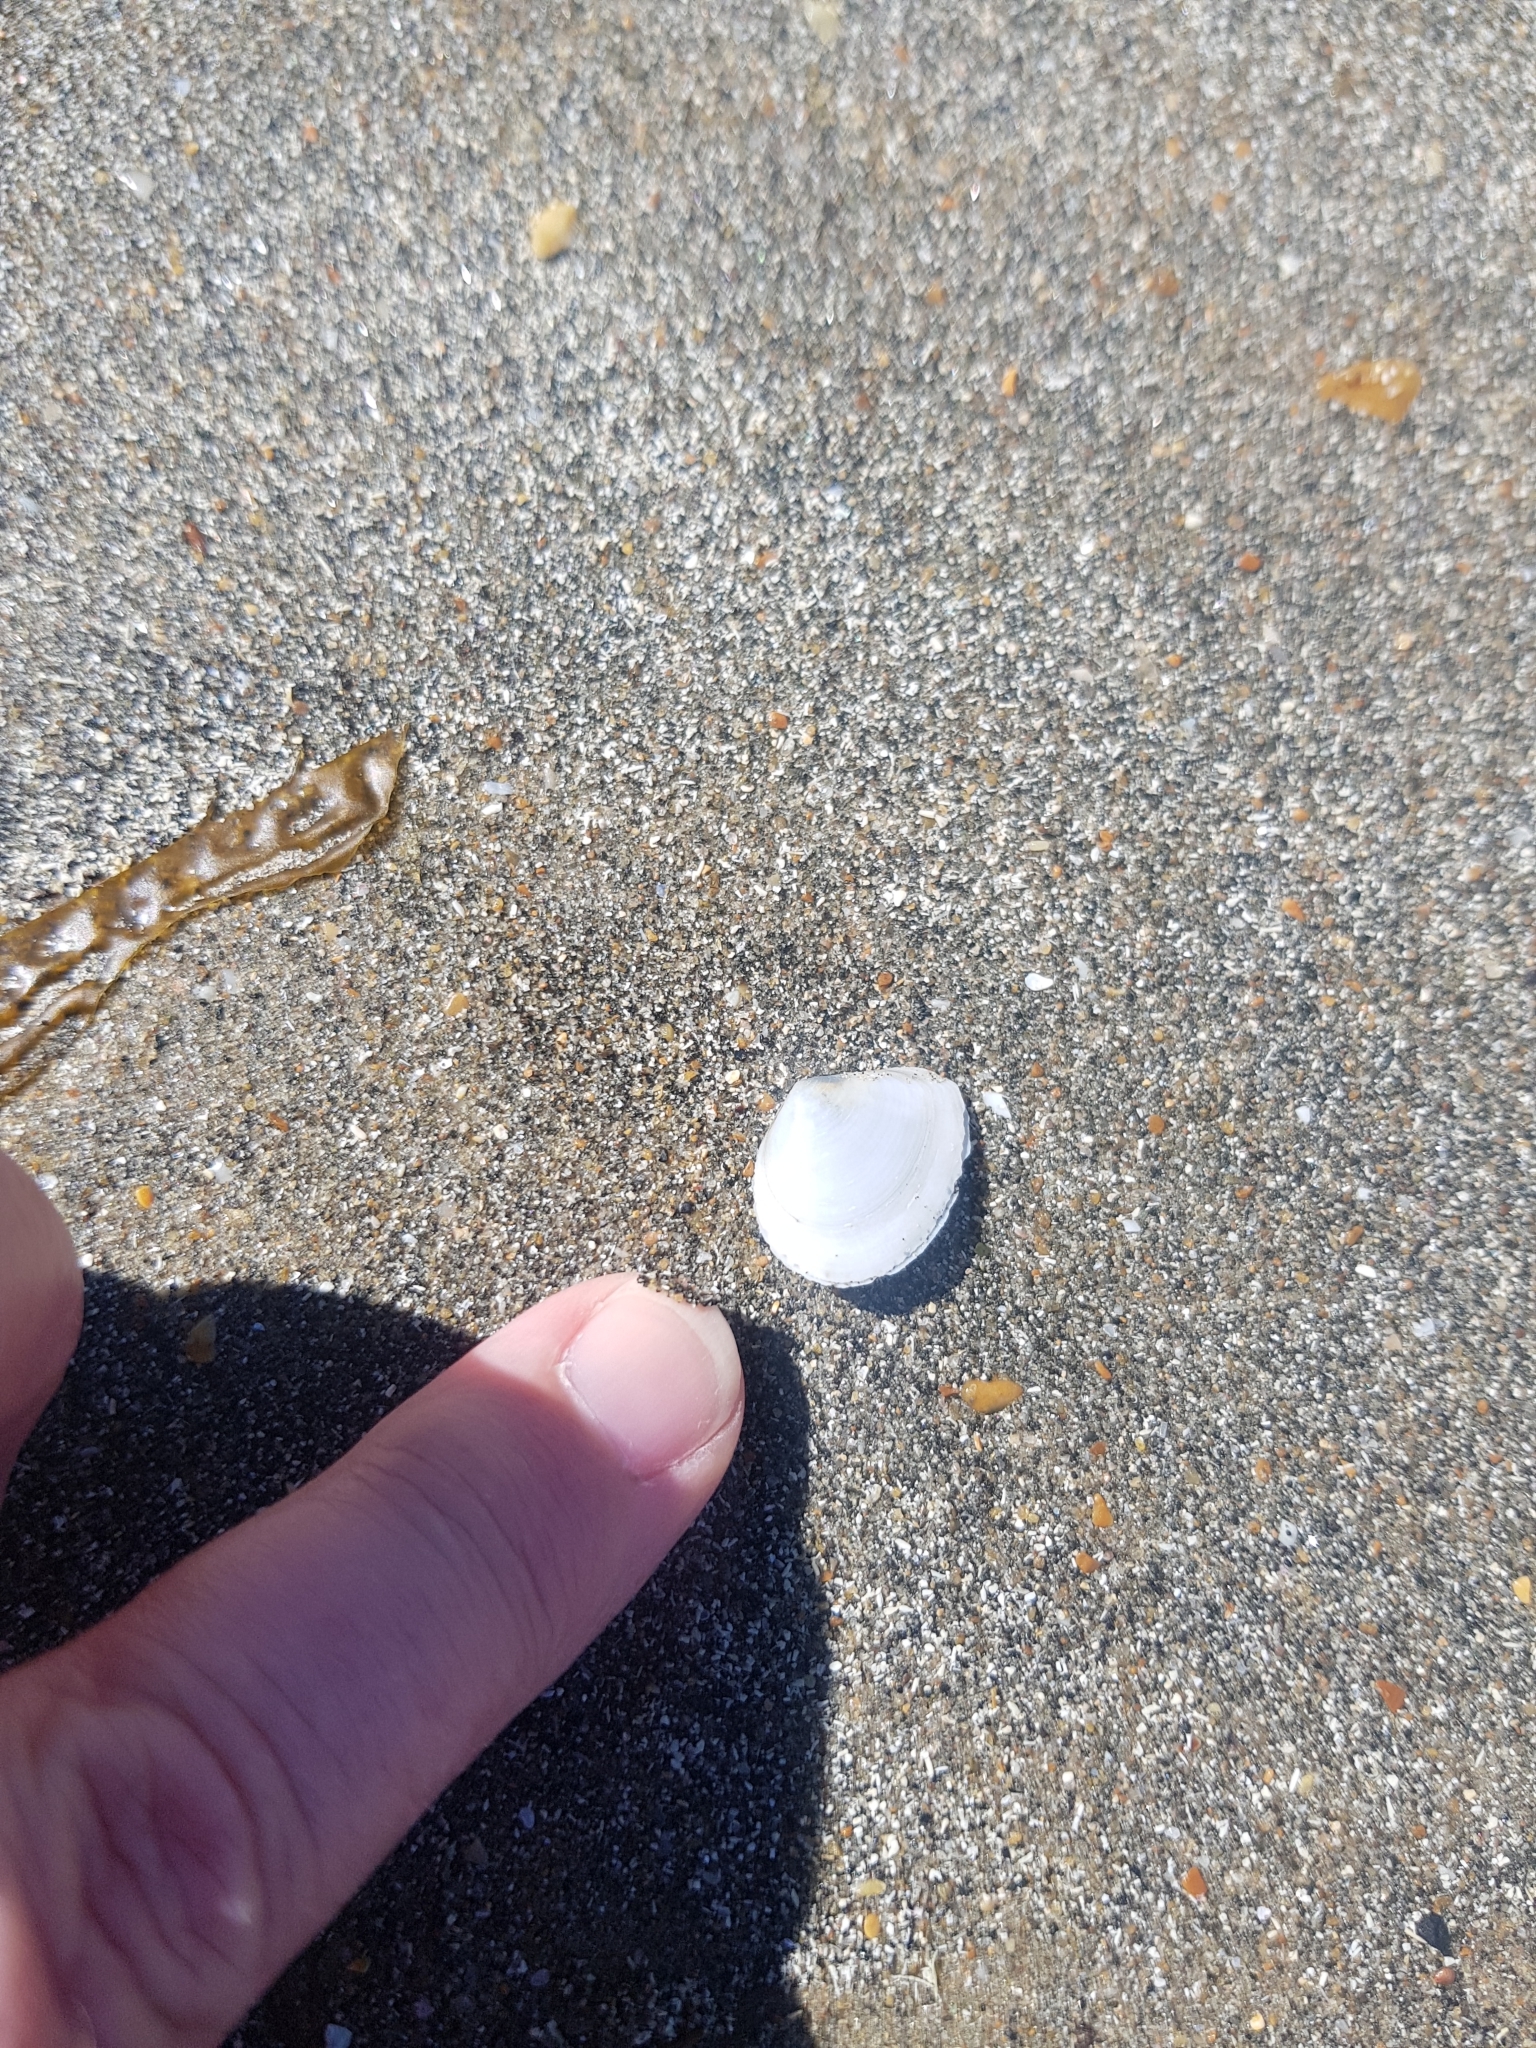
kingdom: Animalia
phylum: Mollusca
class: Bivalvia
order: Cardiida
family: Tellinidae
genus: Macomona
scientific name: Macomona liliana
